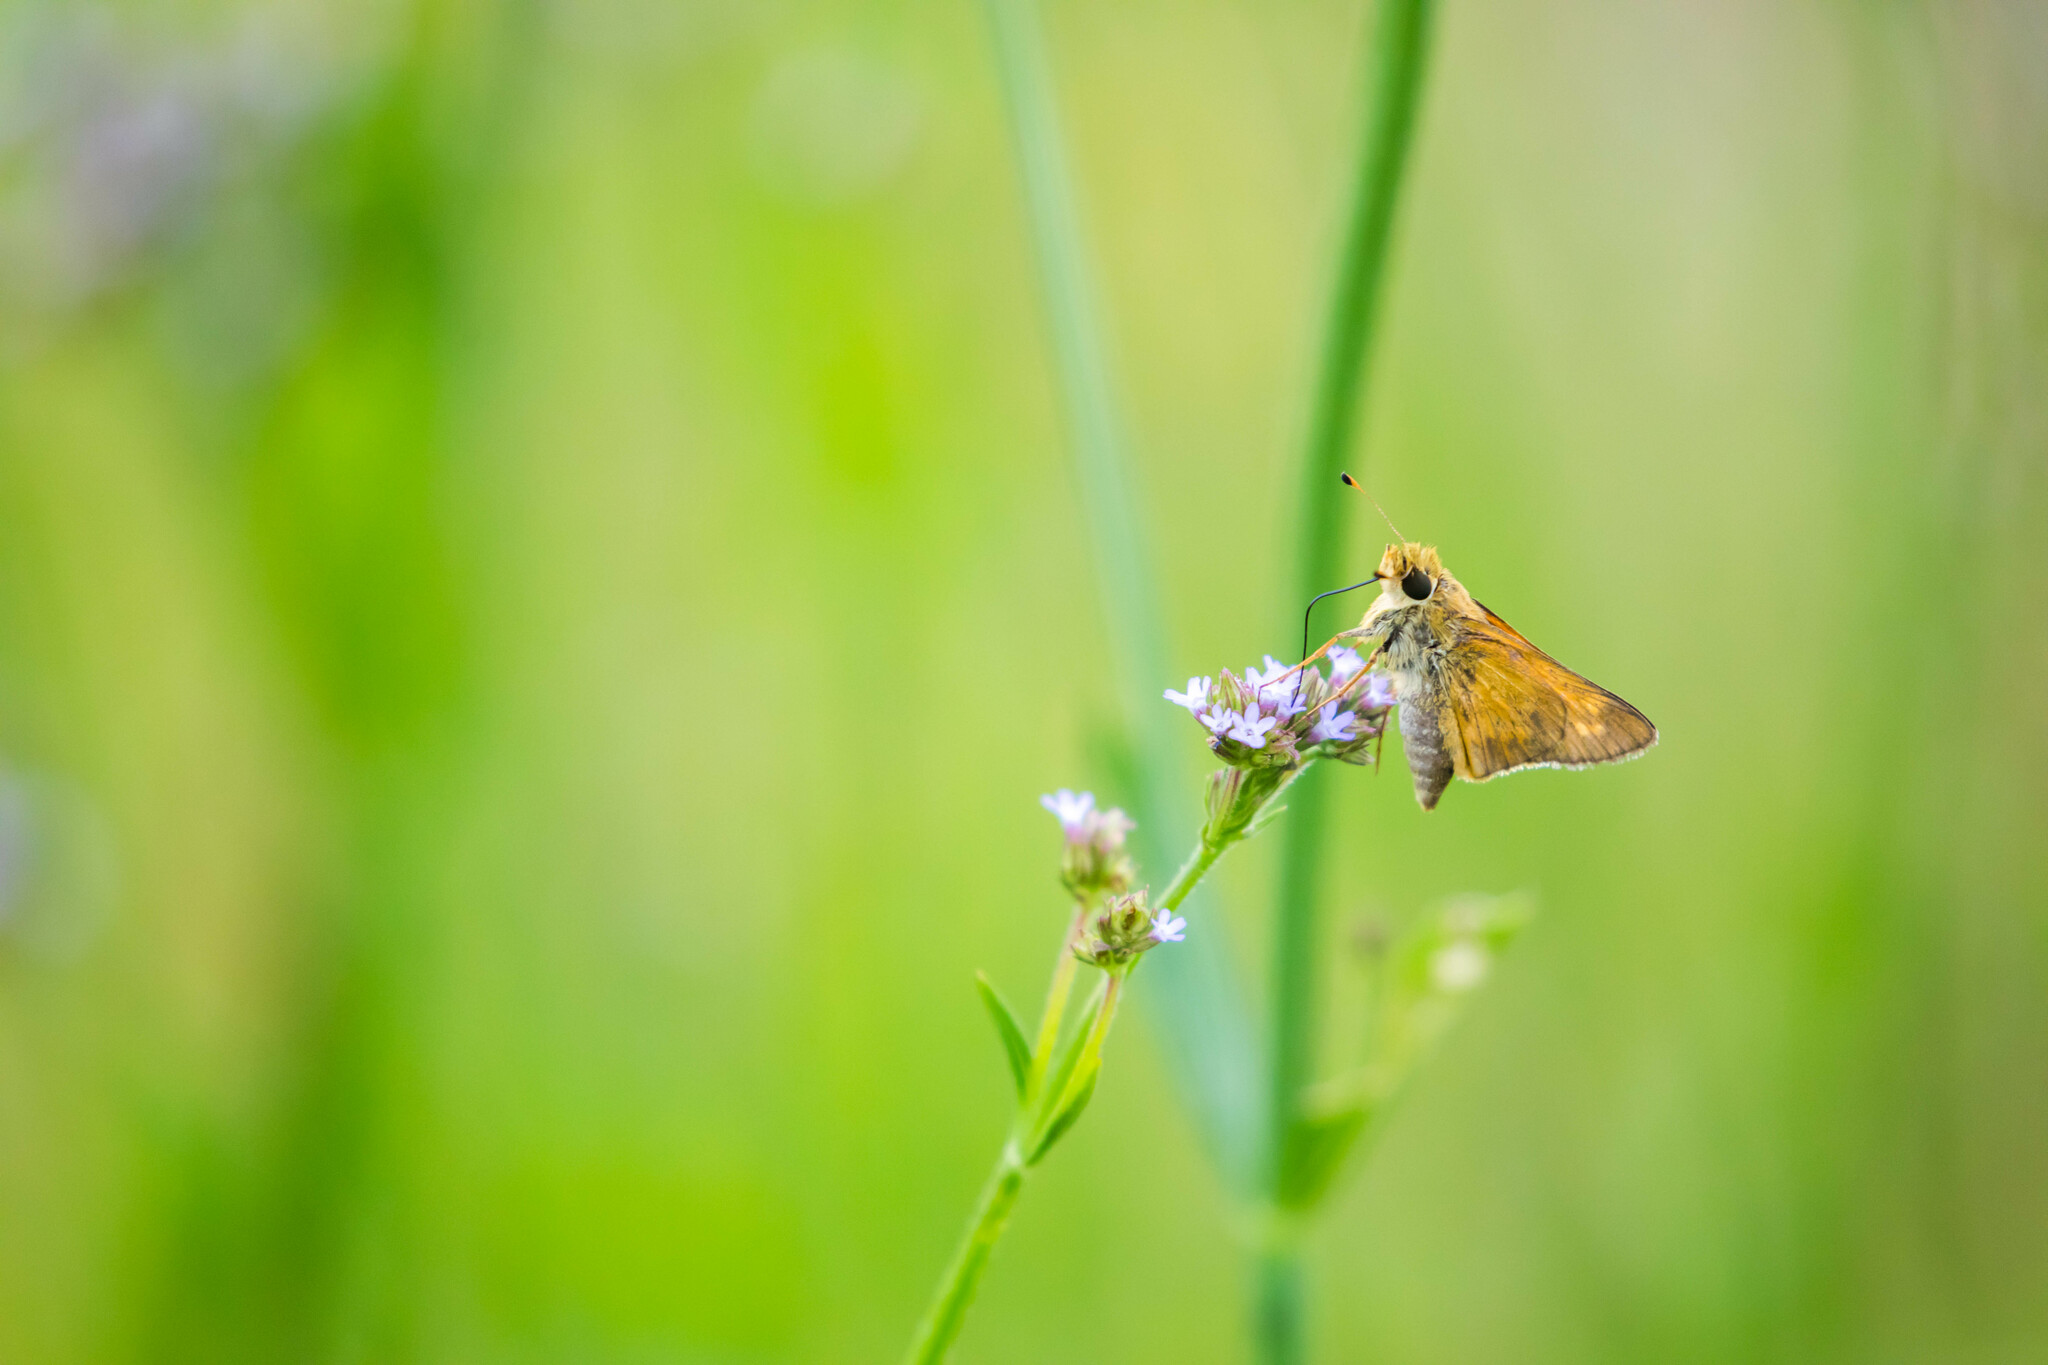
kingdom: Animalia
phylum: Arthropoda
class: Insecta
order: Lepidoptera
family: Hesperiidae
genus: Atalopedes
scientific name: Atalopedes
